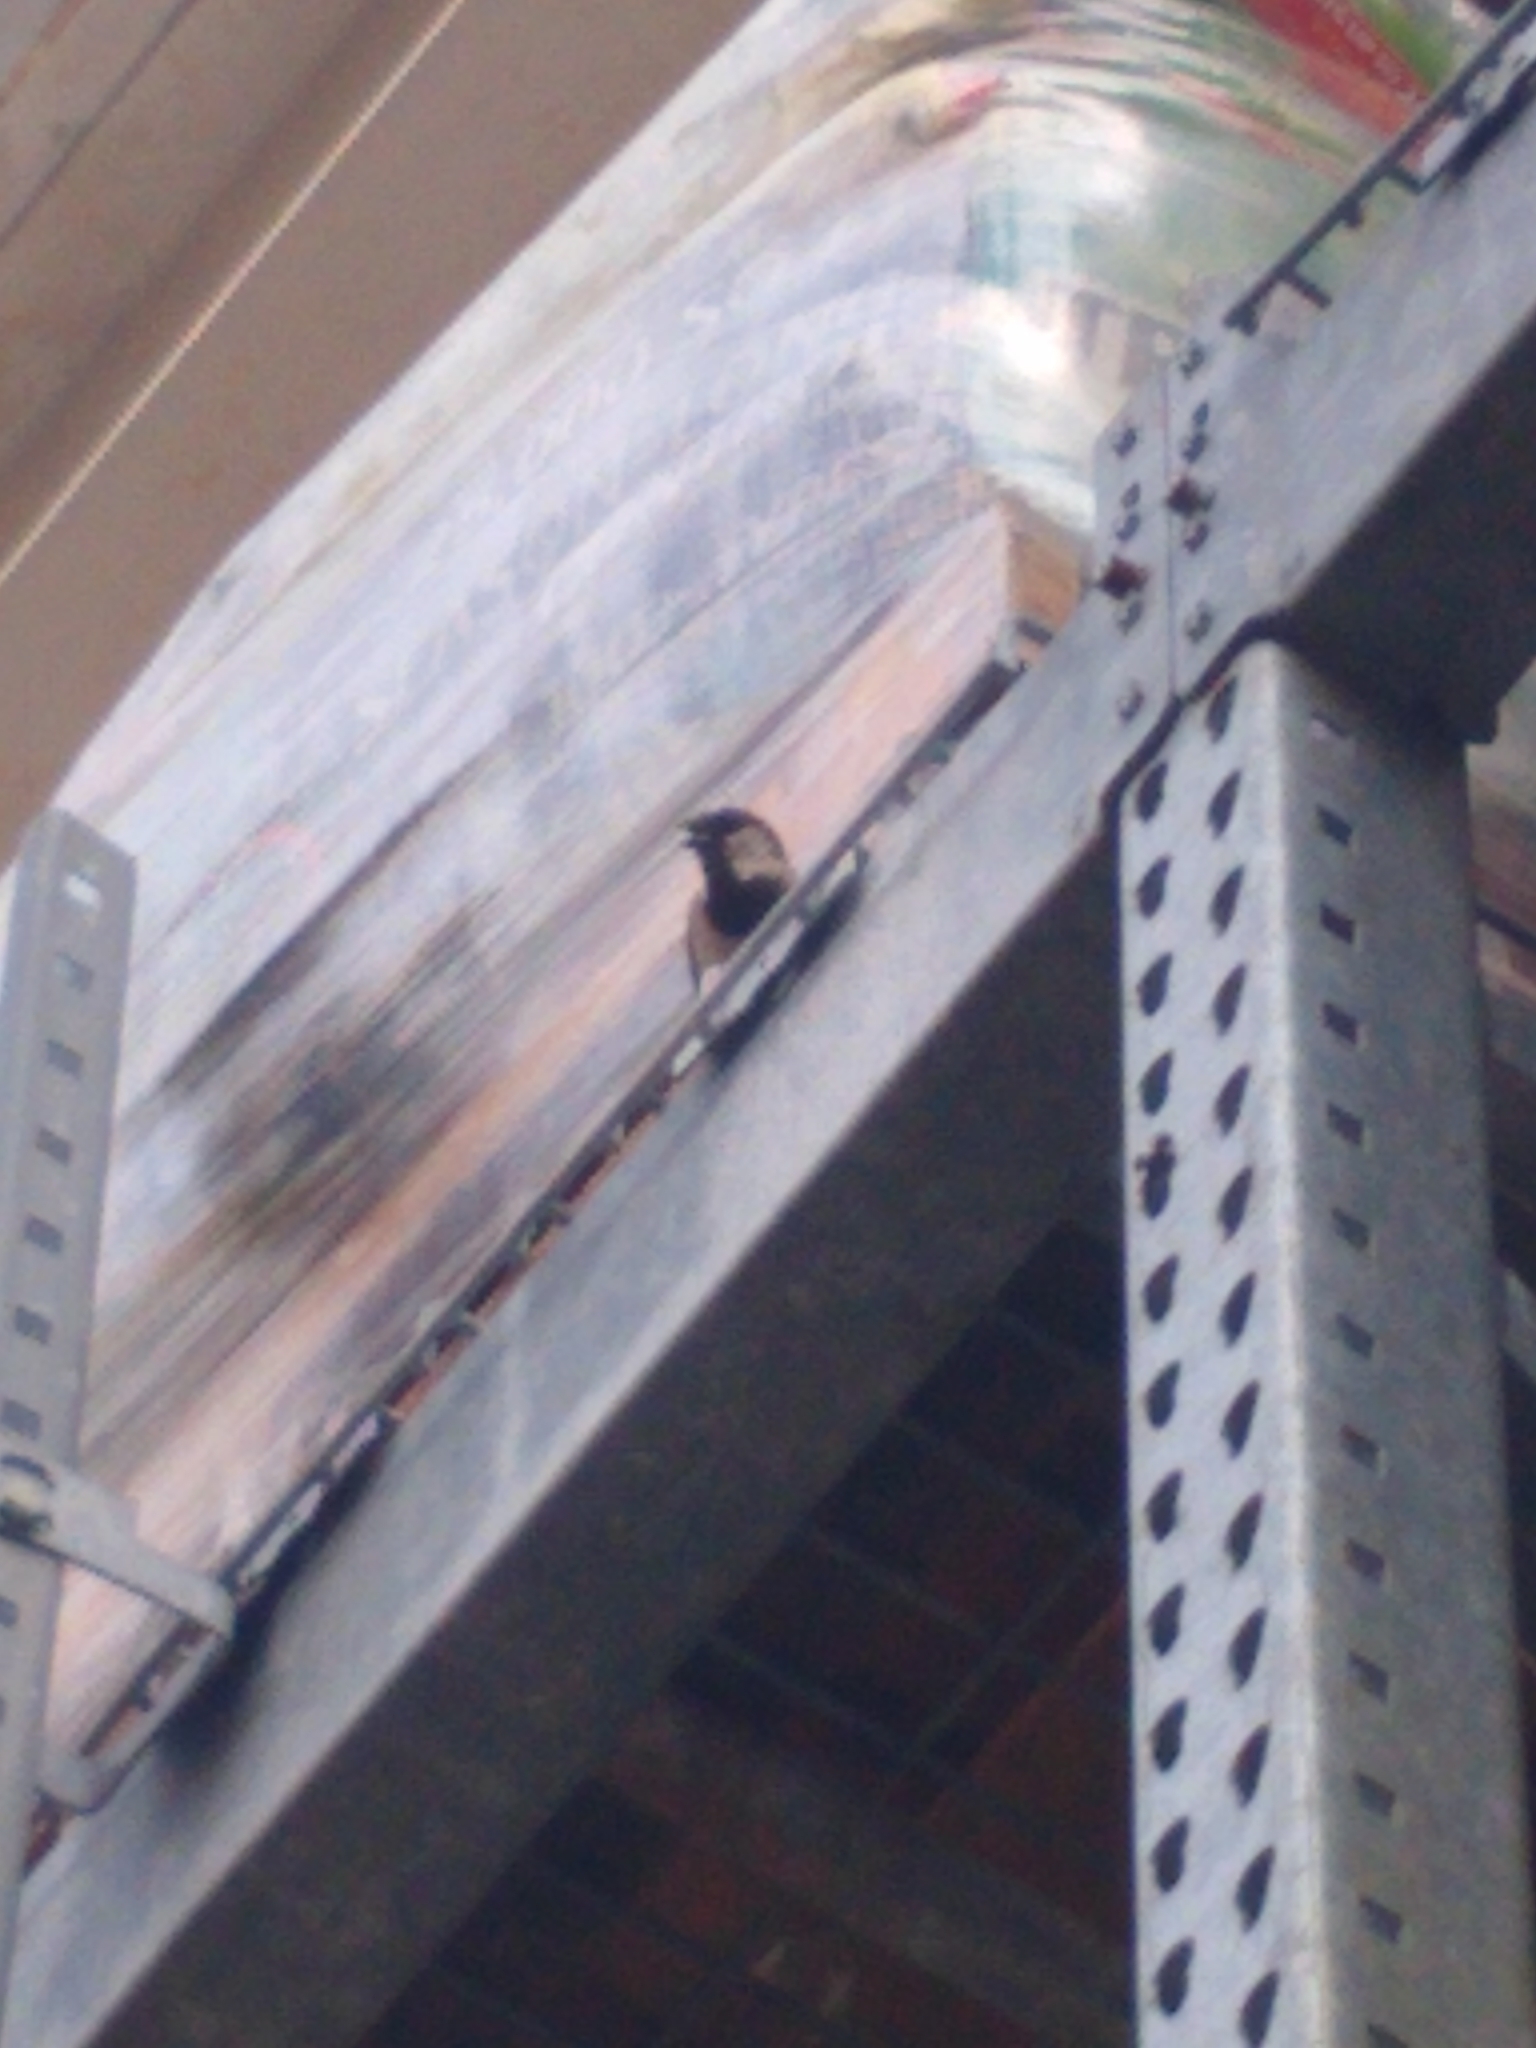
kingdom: Animalia
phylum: Chordata
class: Aves
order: Passeriformes
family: Passeridae
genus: Passer
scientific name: Passer domesticus
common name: House sparrow
